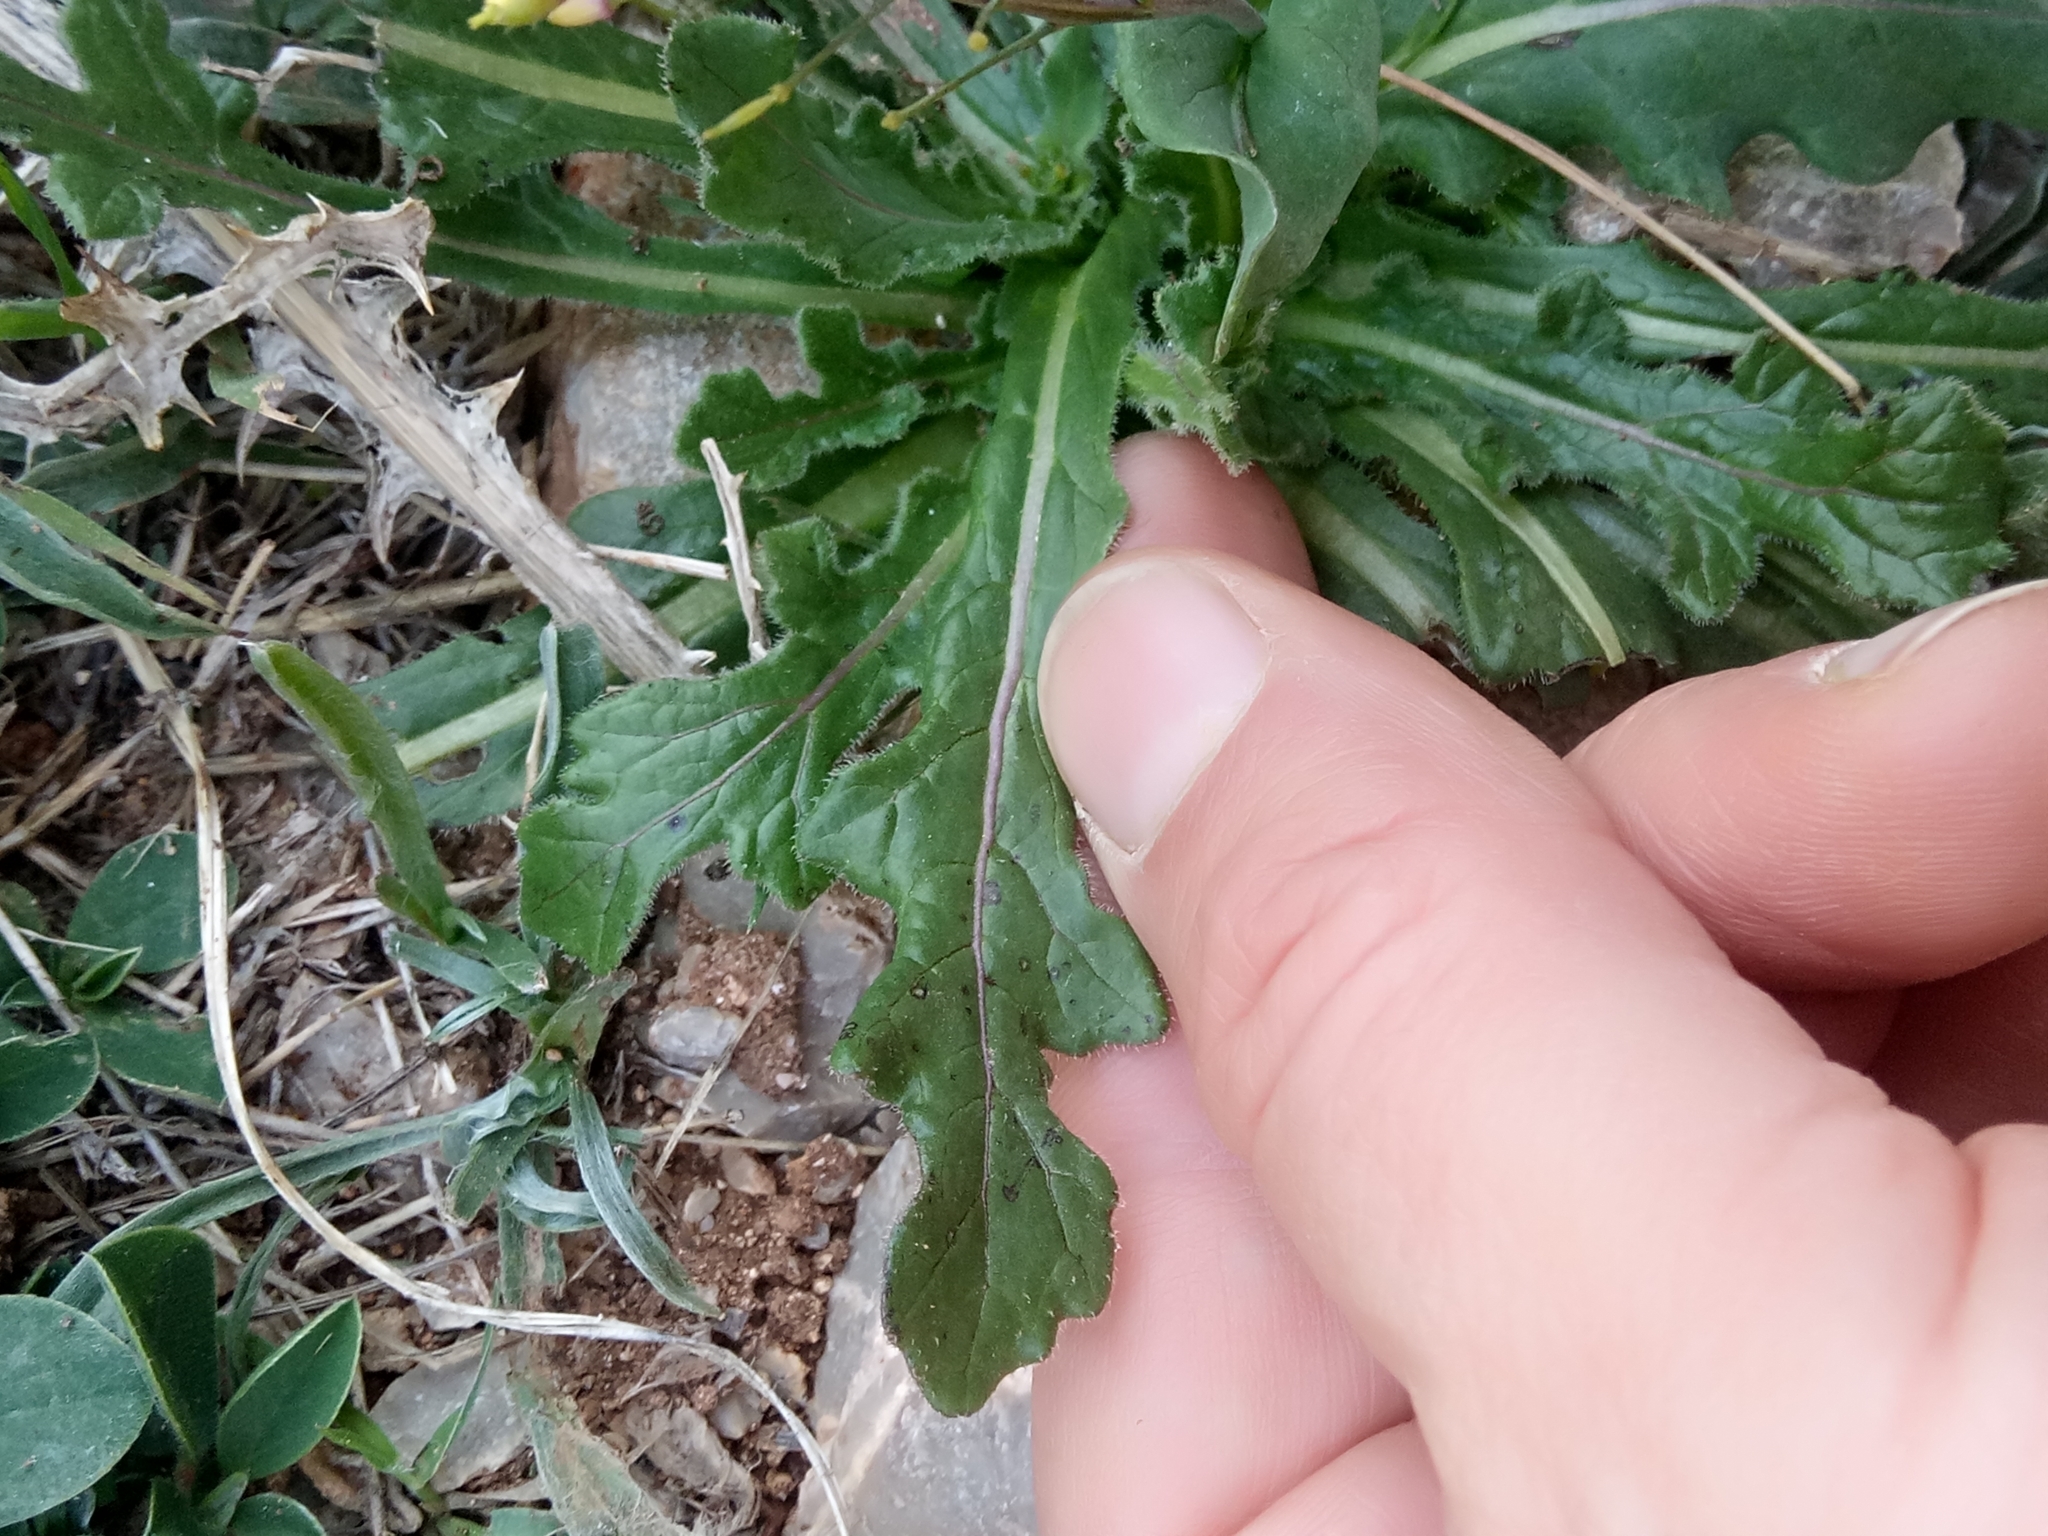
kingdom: Plantae
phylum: Tracheophyta
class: Magnoliopsida
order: Brassicales
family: Brassicaceae
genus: Diplotaxis
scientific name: Diplotaxis muralis
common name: Annual wall-rocket
